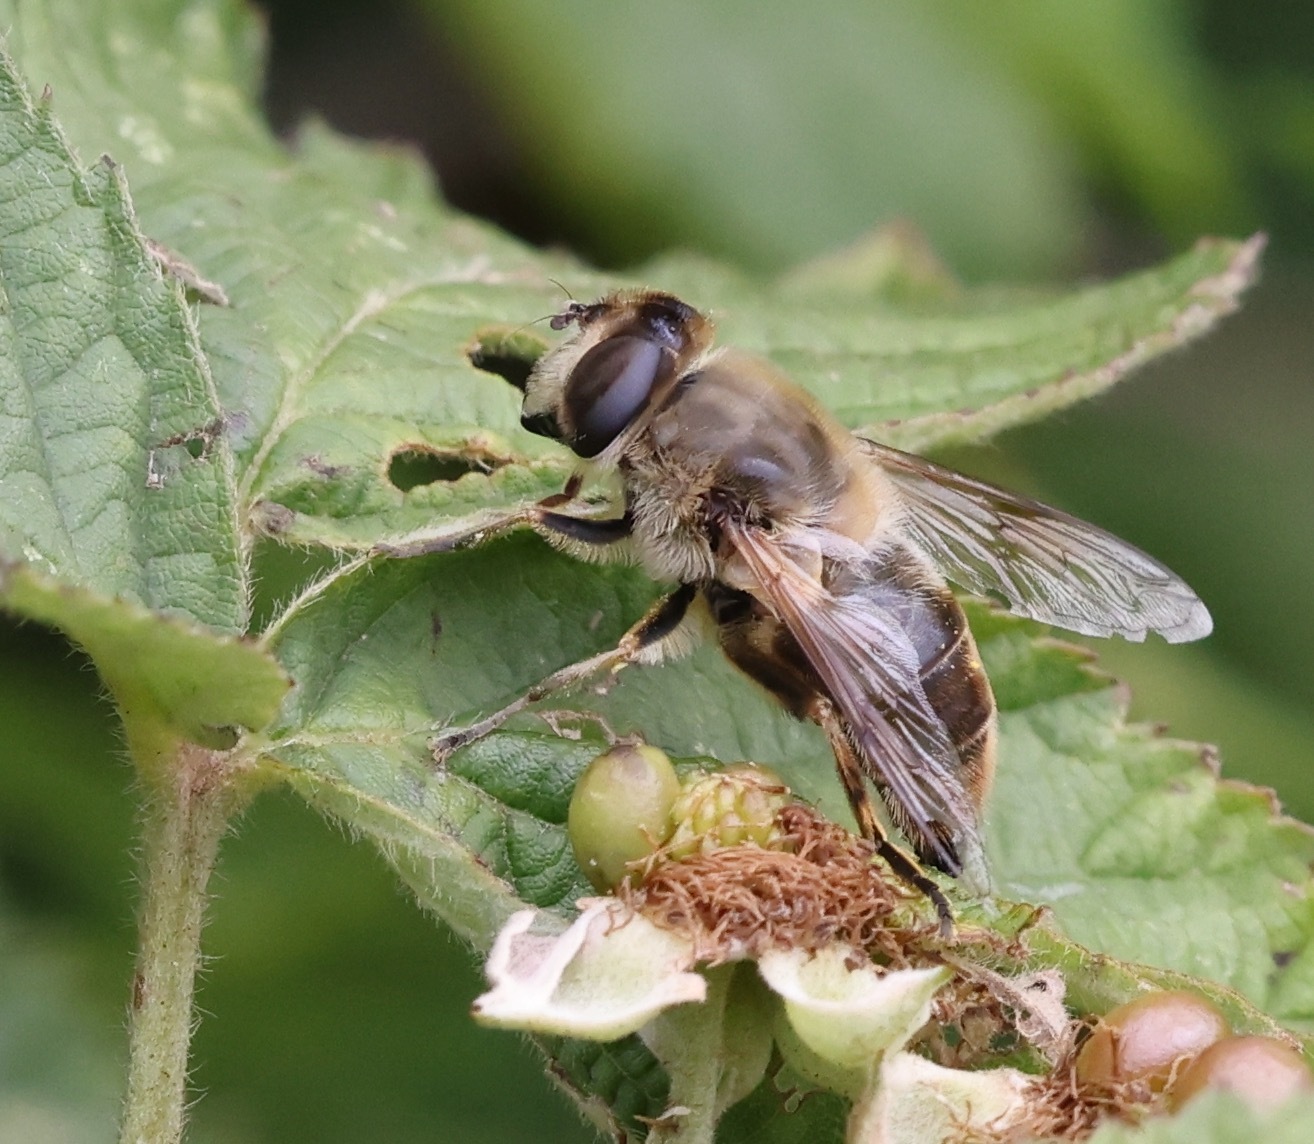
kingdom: Animalia
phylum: Arthropoda
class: Insecta
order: Diptera
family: Syrphidae
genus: Eristalis
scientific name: Eristalis tenax
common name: Drone fly
